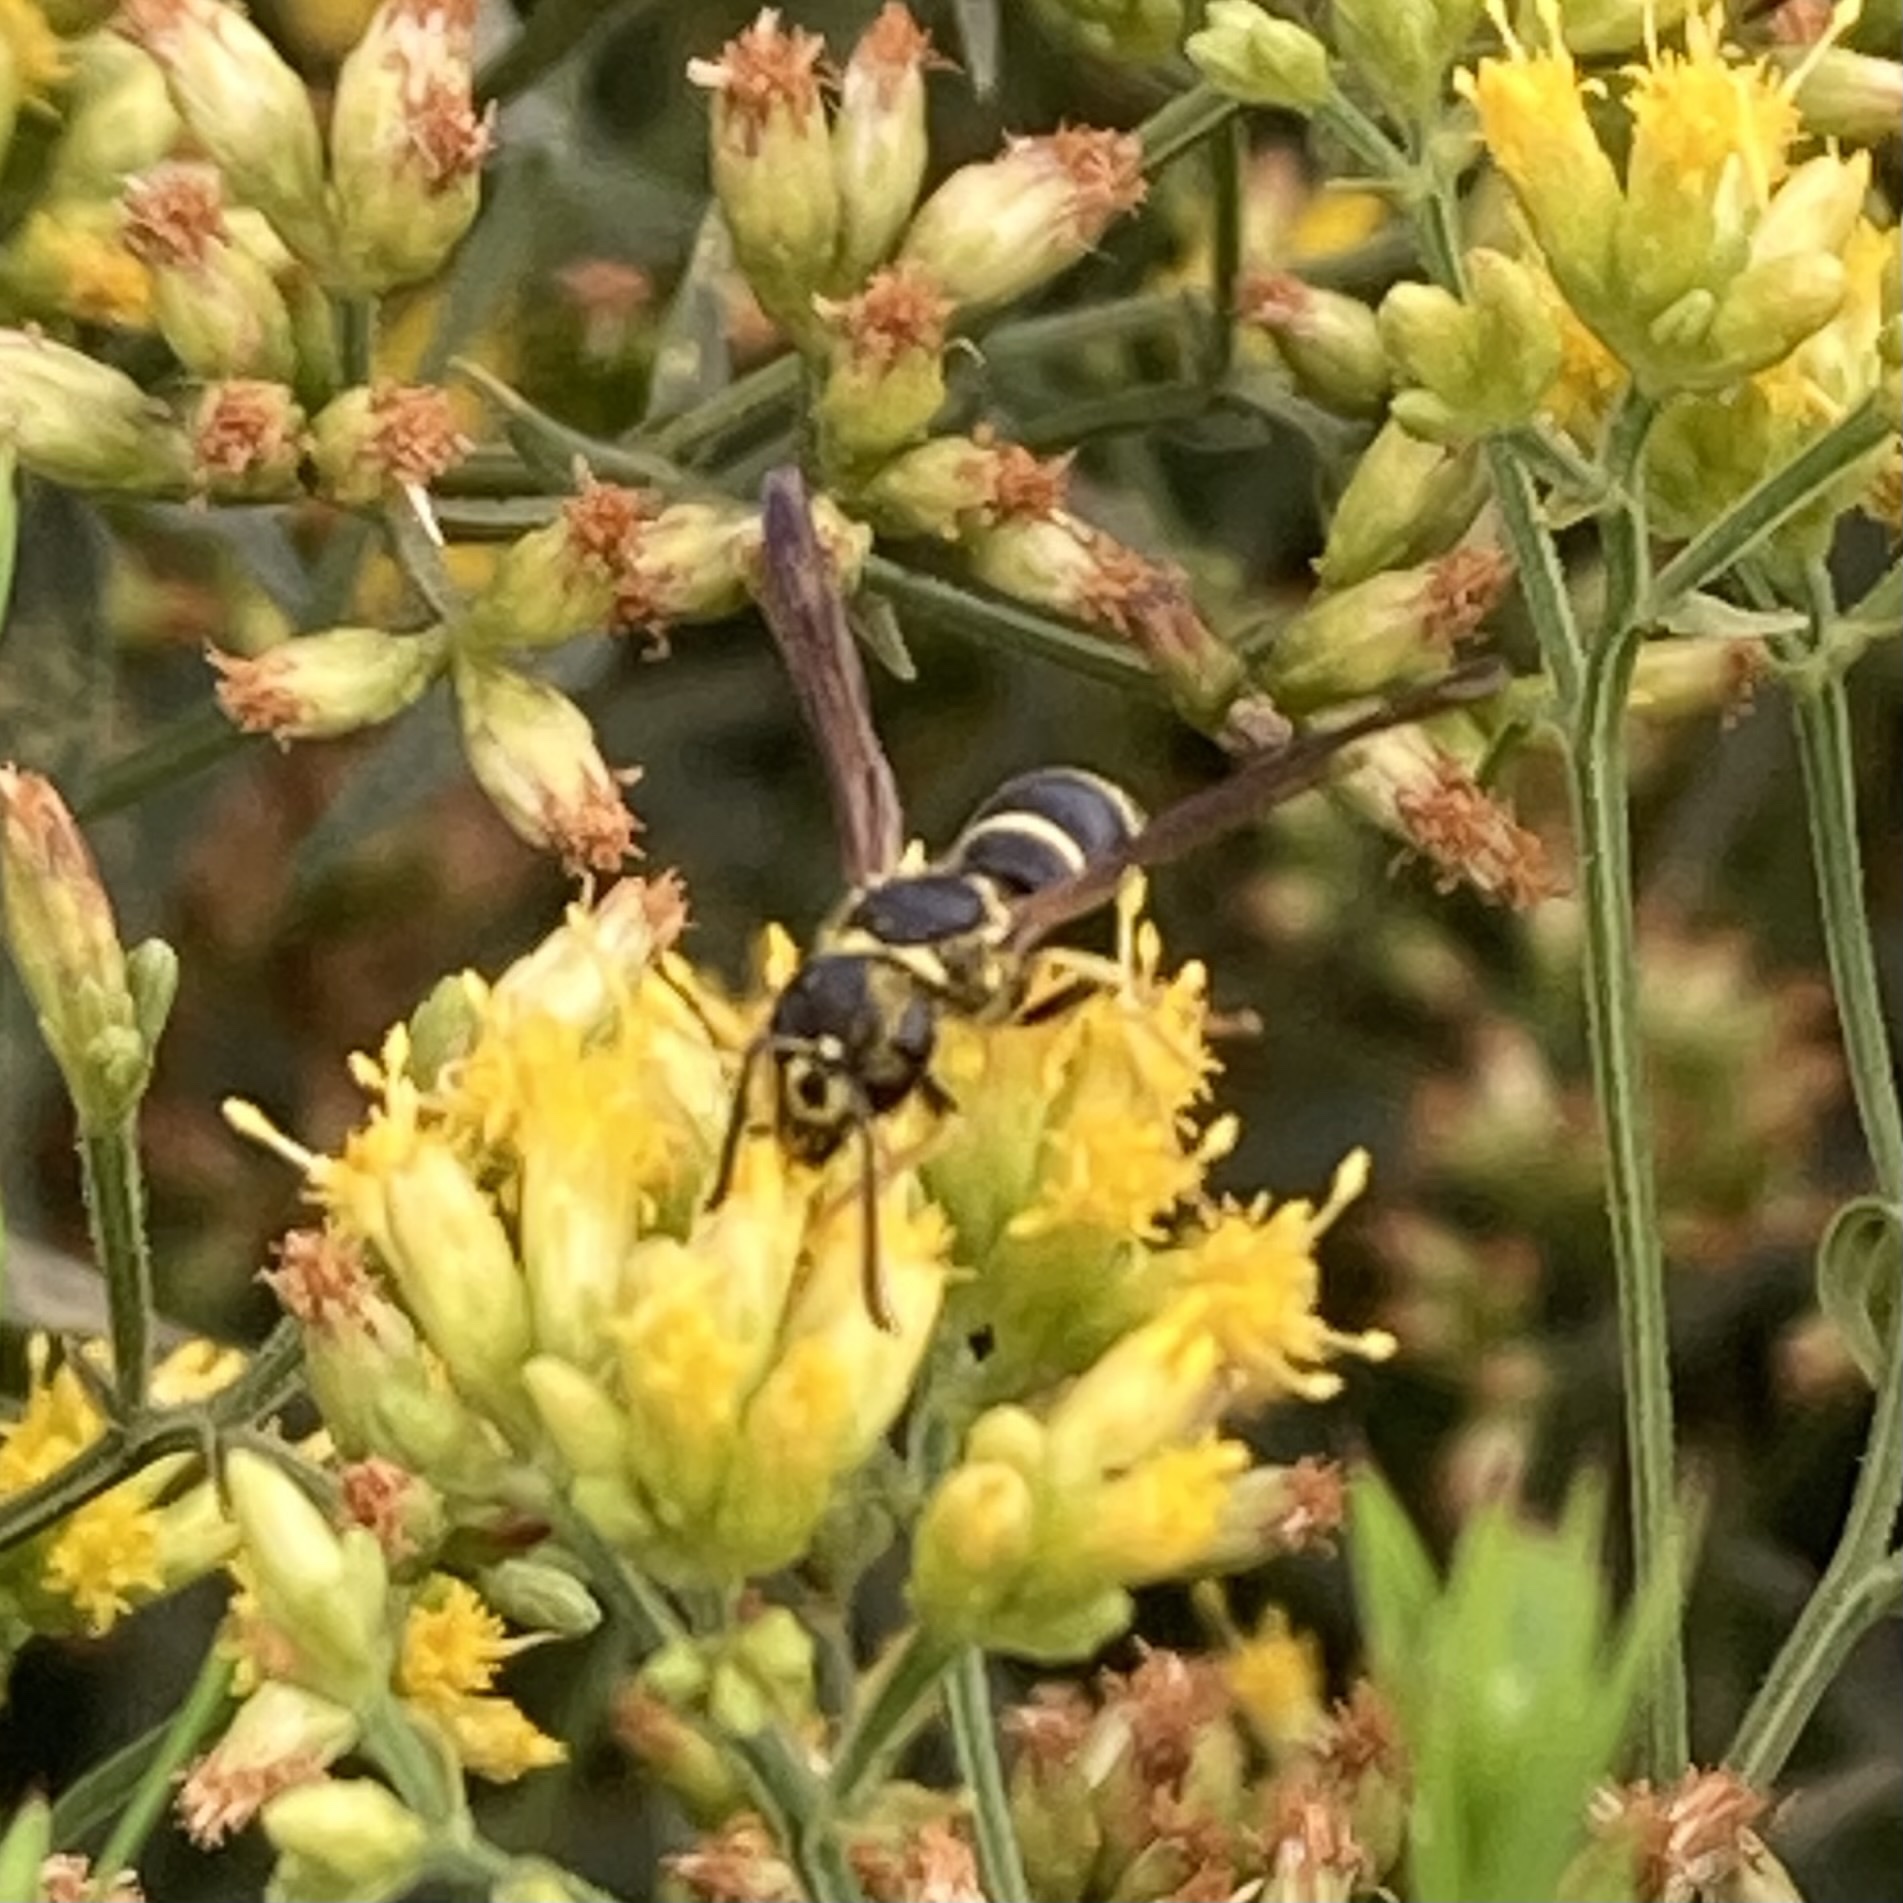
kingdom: Animalia
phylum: Arthropoda
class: Insecta
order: Hymenoptera
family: Vespidae
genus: Ancistrocerus
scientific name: Ancistrocerus
